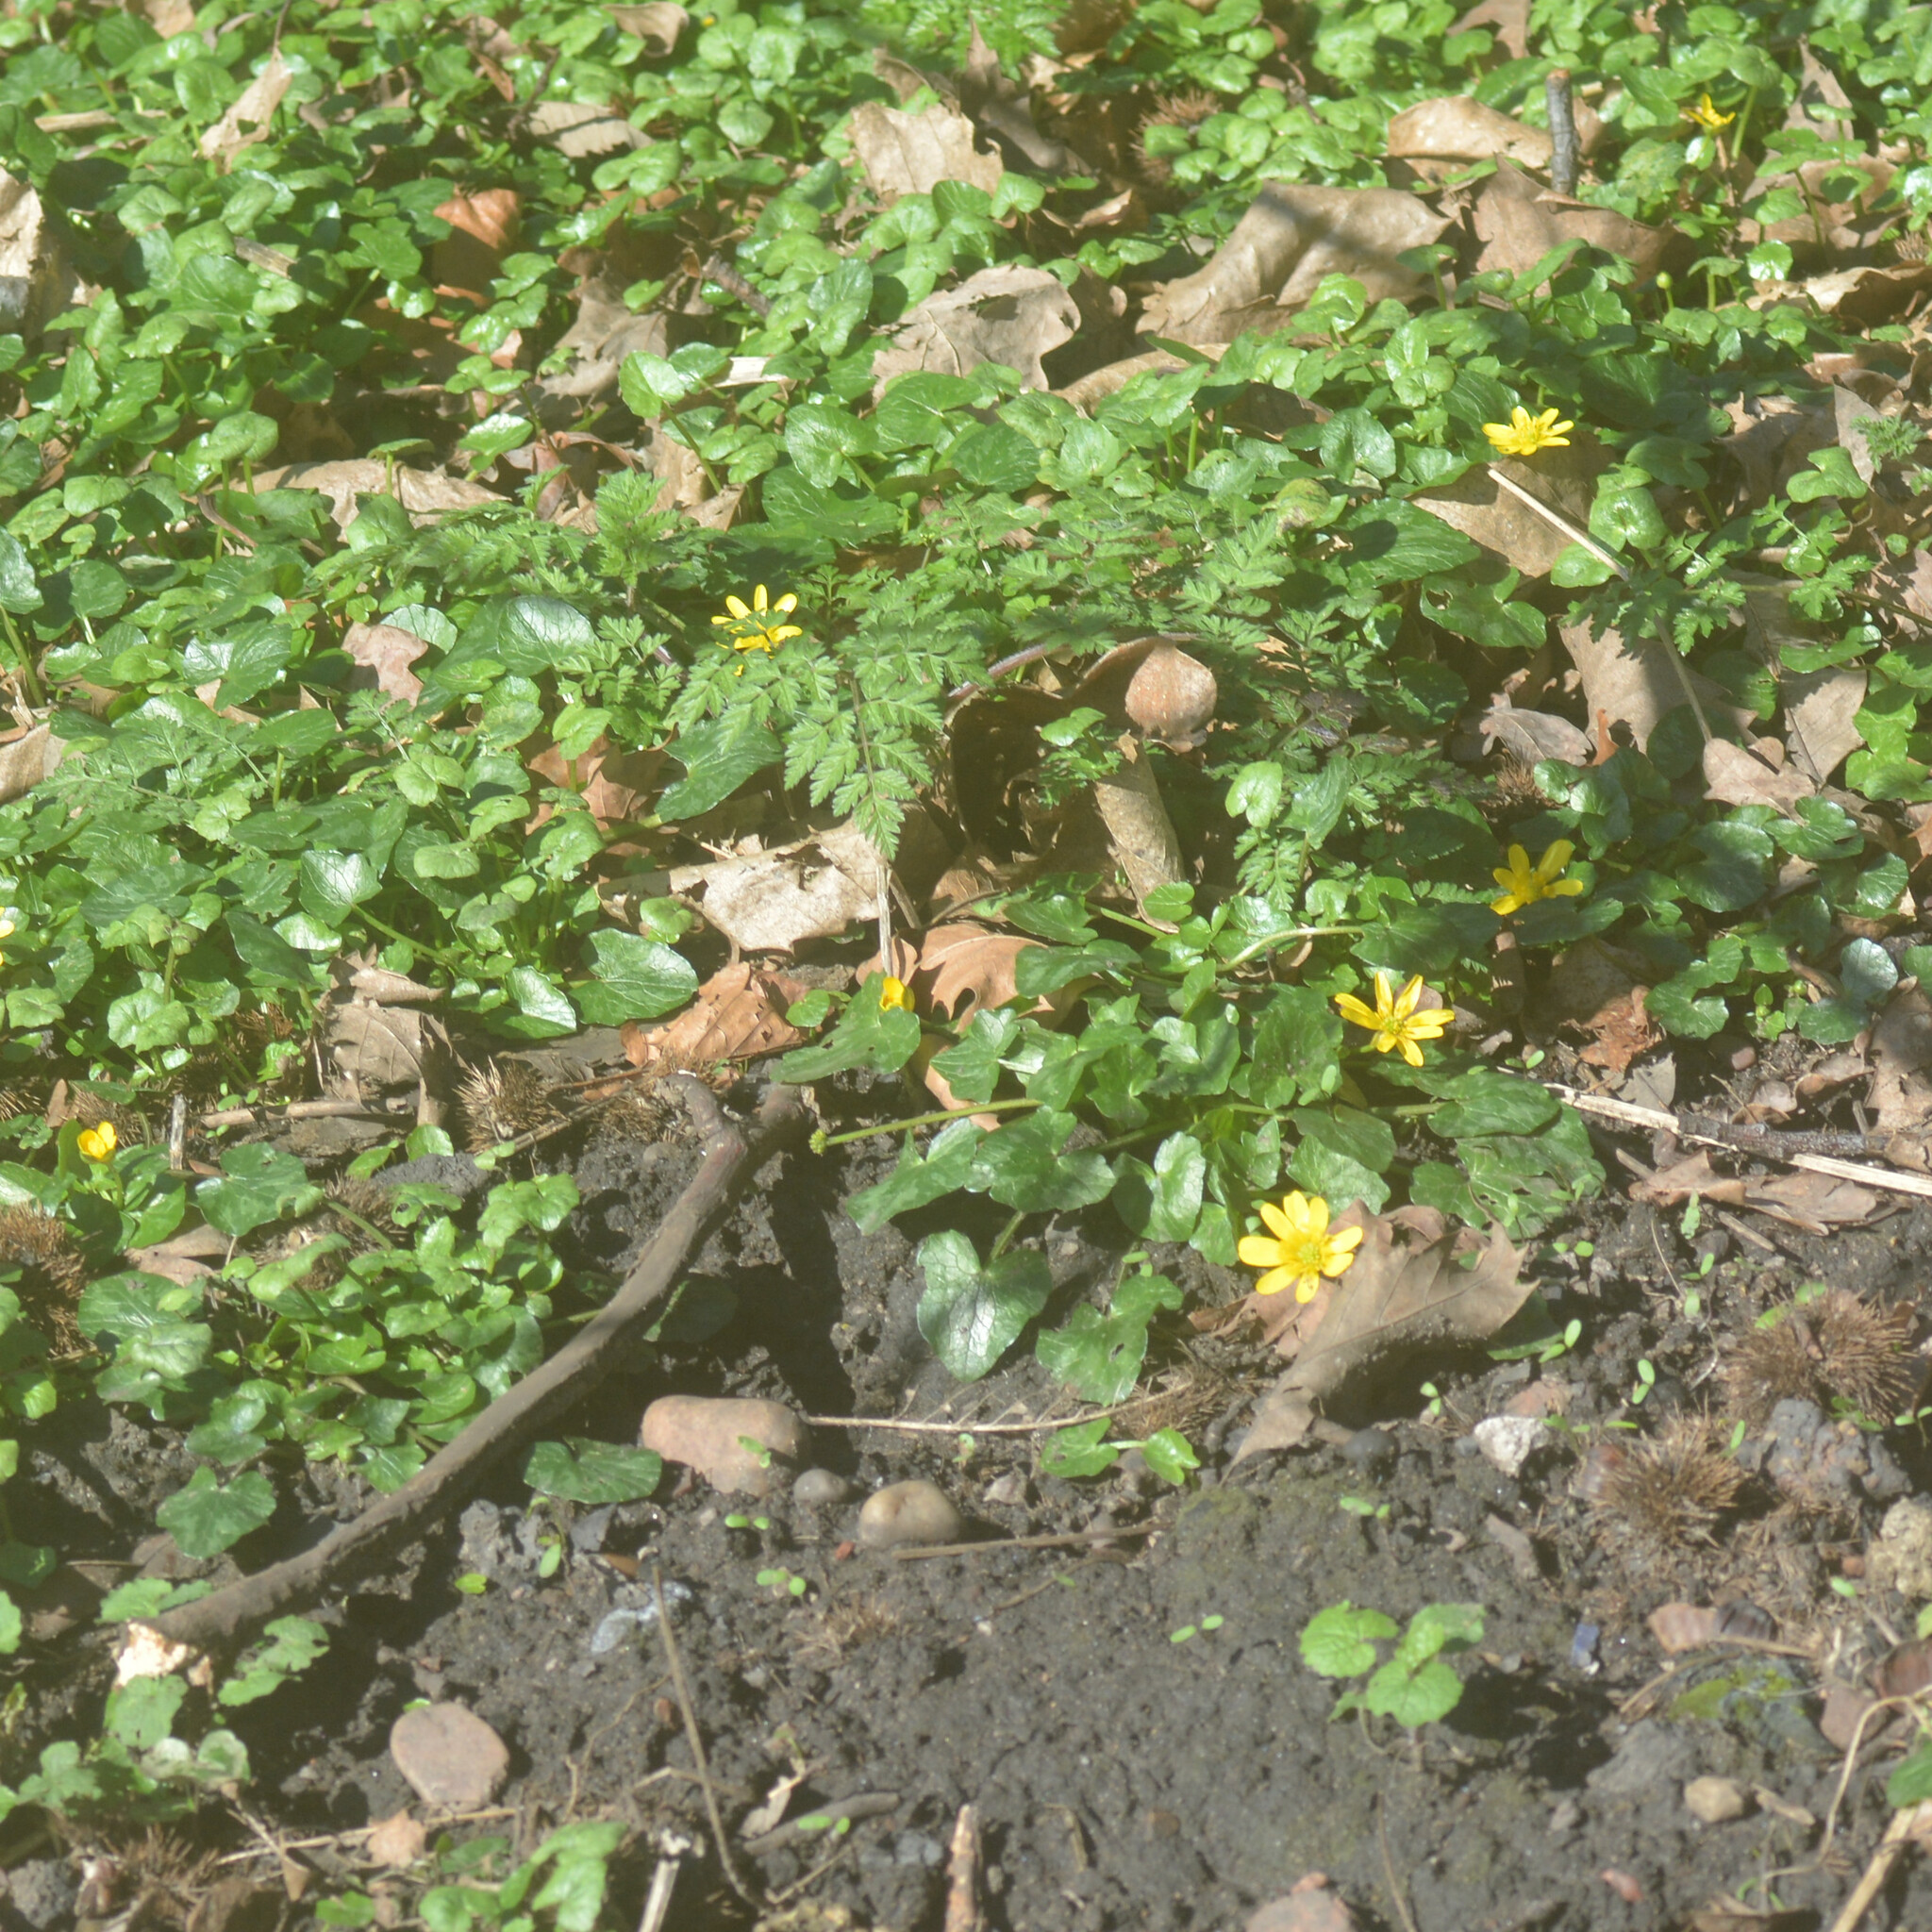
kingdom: Plantae
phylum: Tracheophyta
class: Magnoliopsida
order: Ranunculales
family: Ranunculaceae
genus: Ficaria
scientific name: Ficaria verna
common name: Lesser celandine
